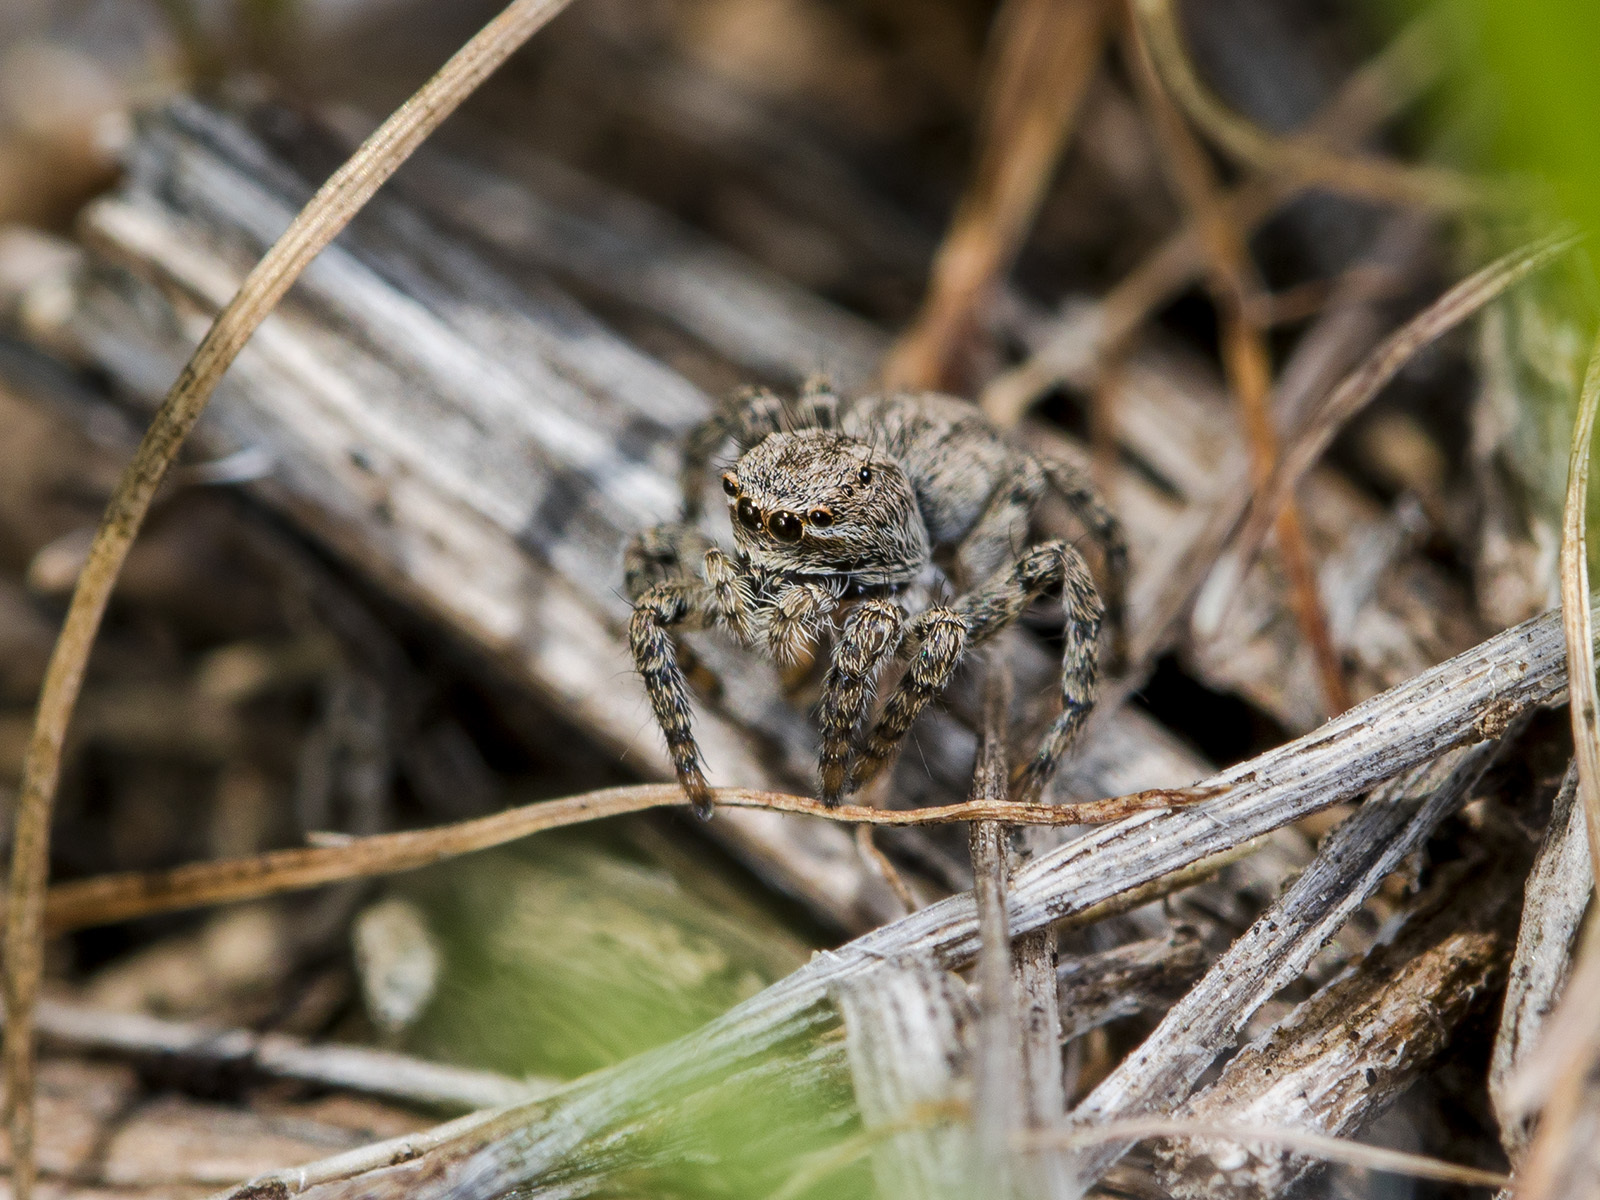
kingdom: Animalia
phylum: Arthropoda
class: Arachnida
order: Araneae
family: Salticidae
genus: Aelurillus
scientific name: Aelurillus v-insignitus
